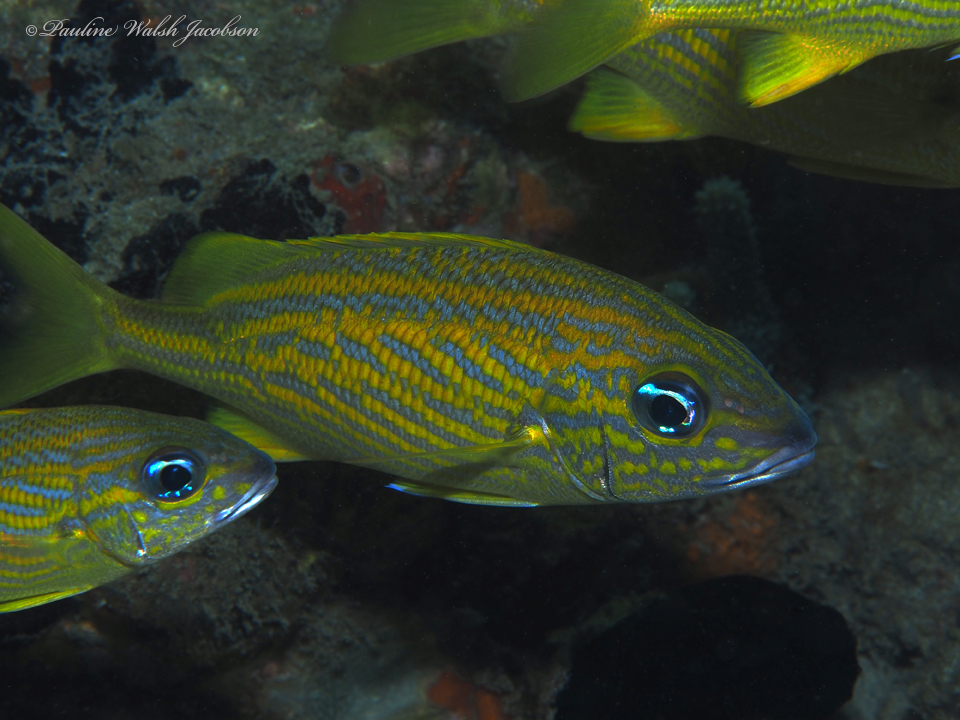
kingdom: Animalia
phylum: Chordata
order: Perciformes
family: Haemulidae
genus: Haemulon
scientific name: Haemulon flavolineatum
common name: French grunt
